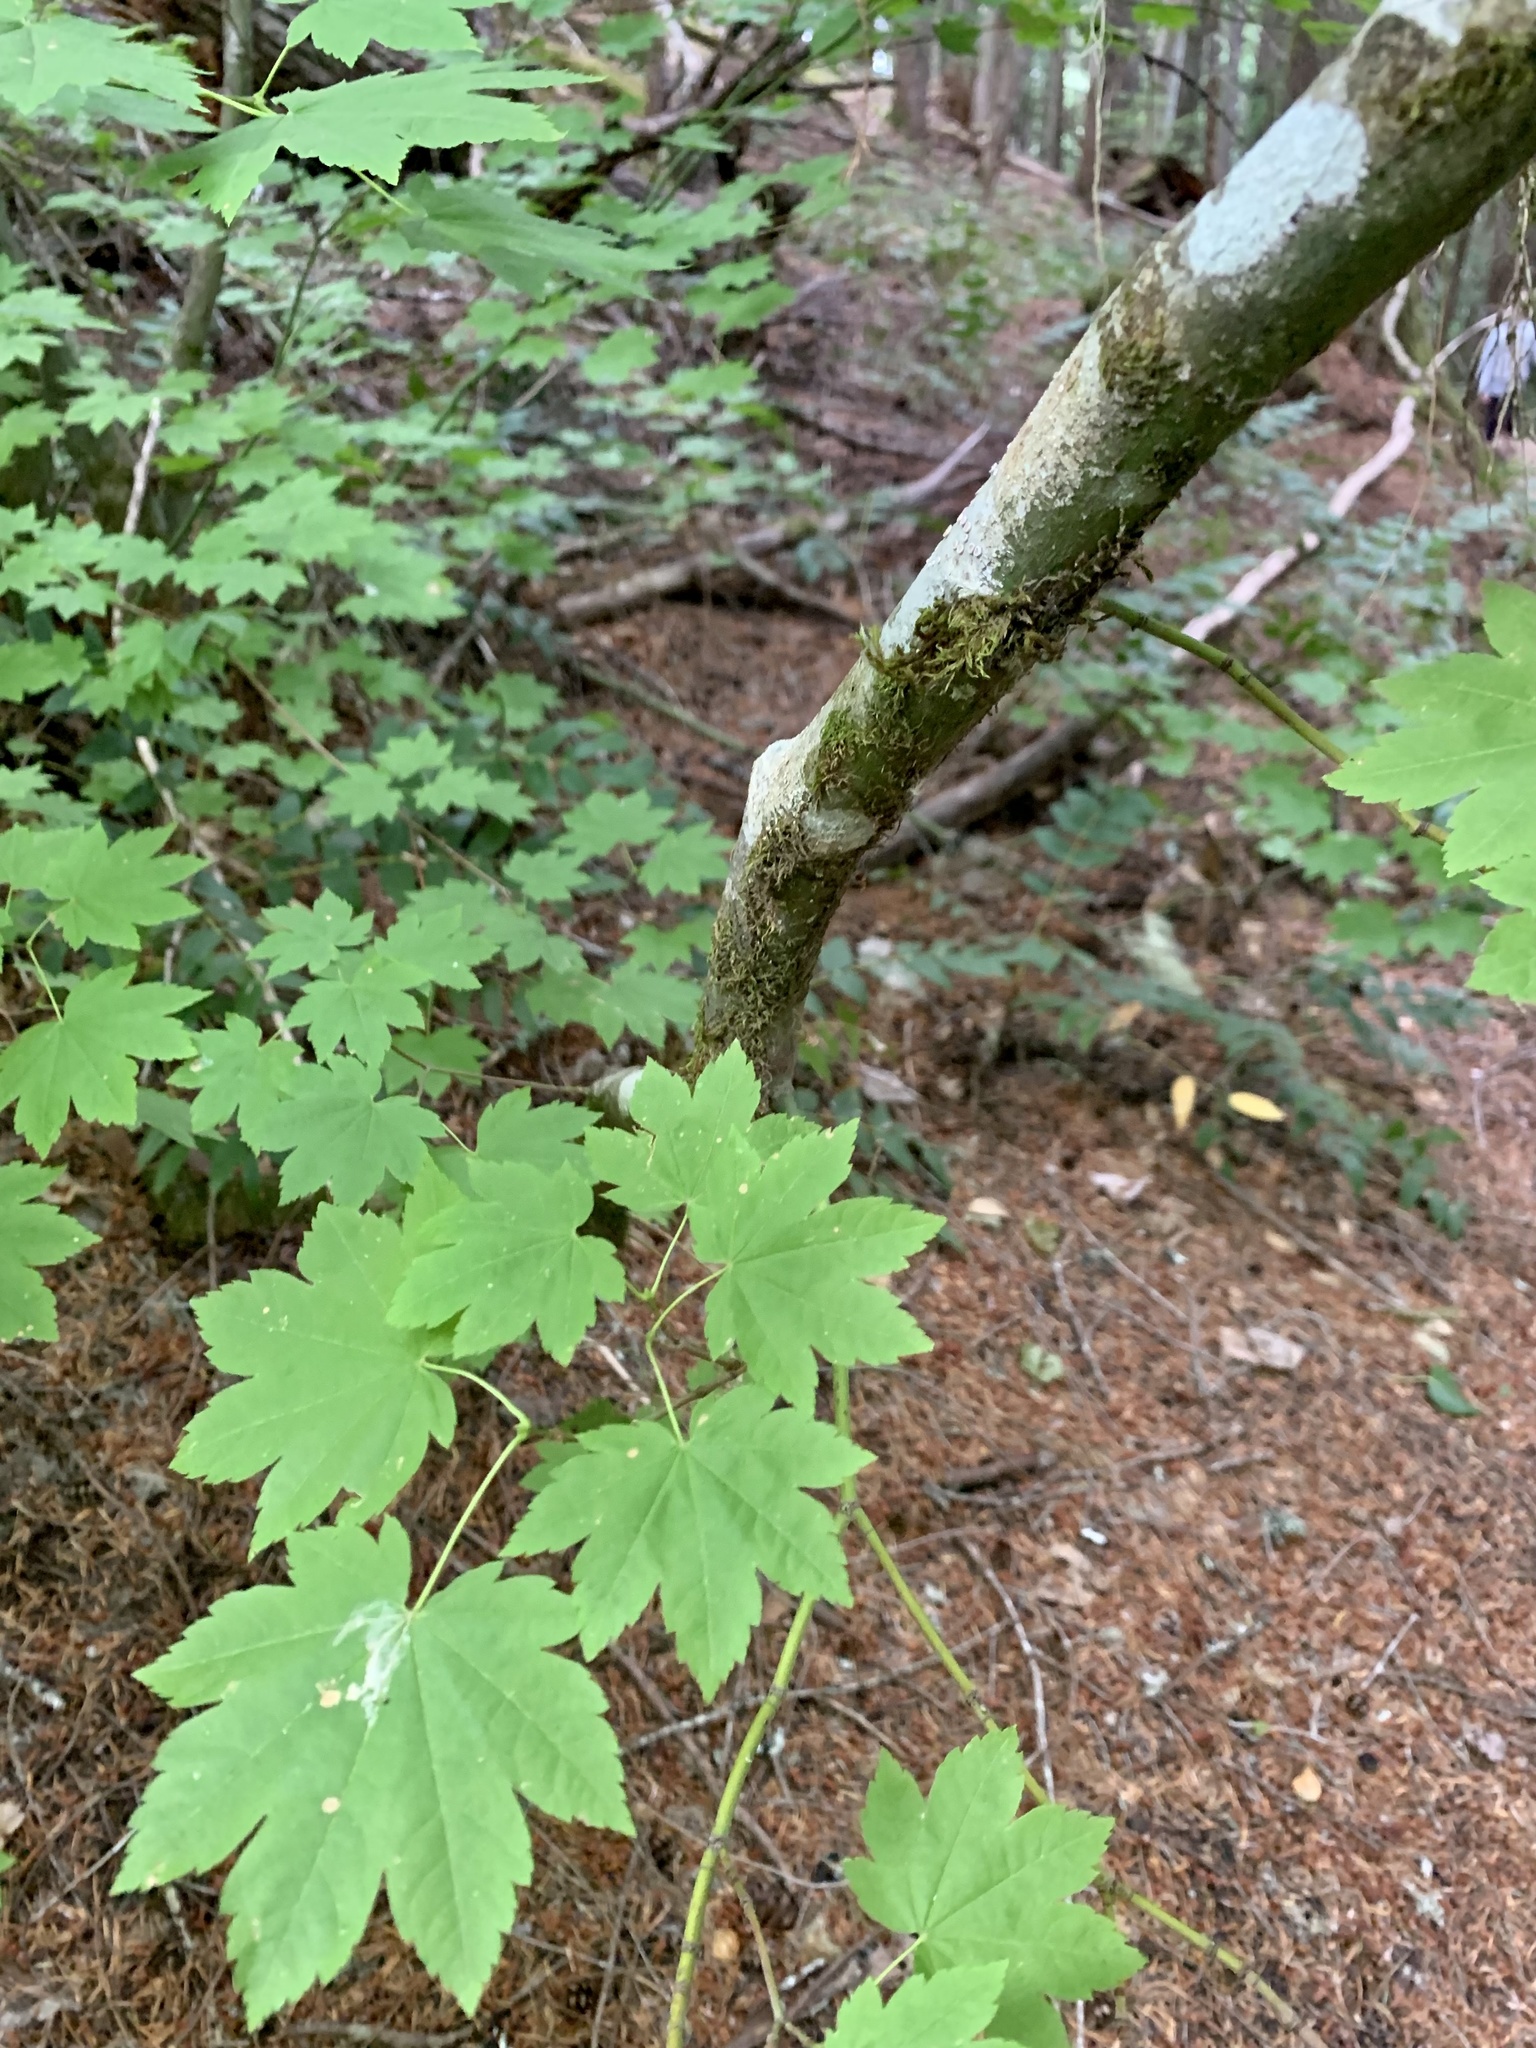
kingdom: Plantae
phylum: Tracheophyta
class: Magnoliopsida
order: Sapindales
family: Sapindaceae
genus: Acer
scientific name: Acer circinatum
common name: Vine maple
